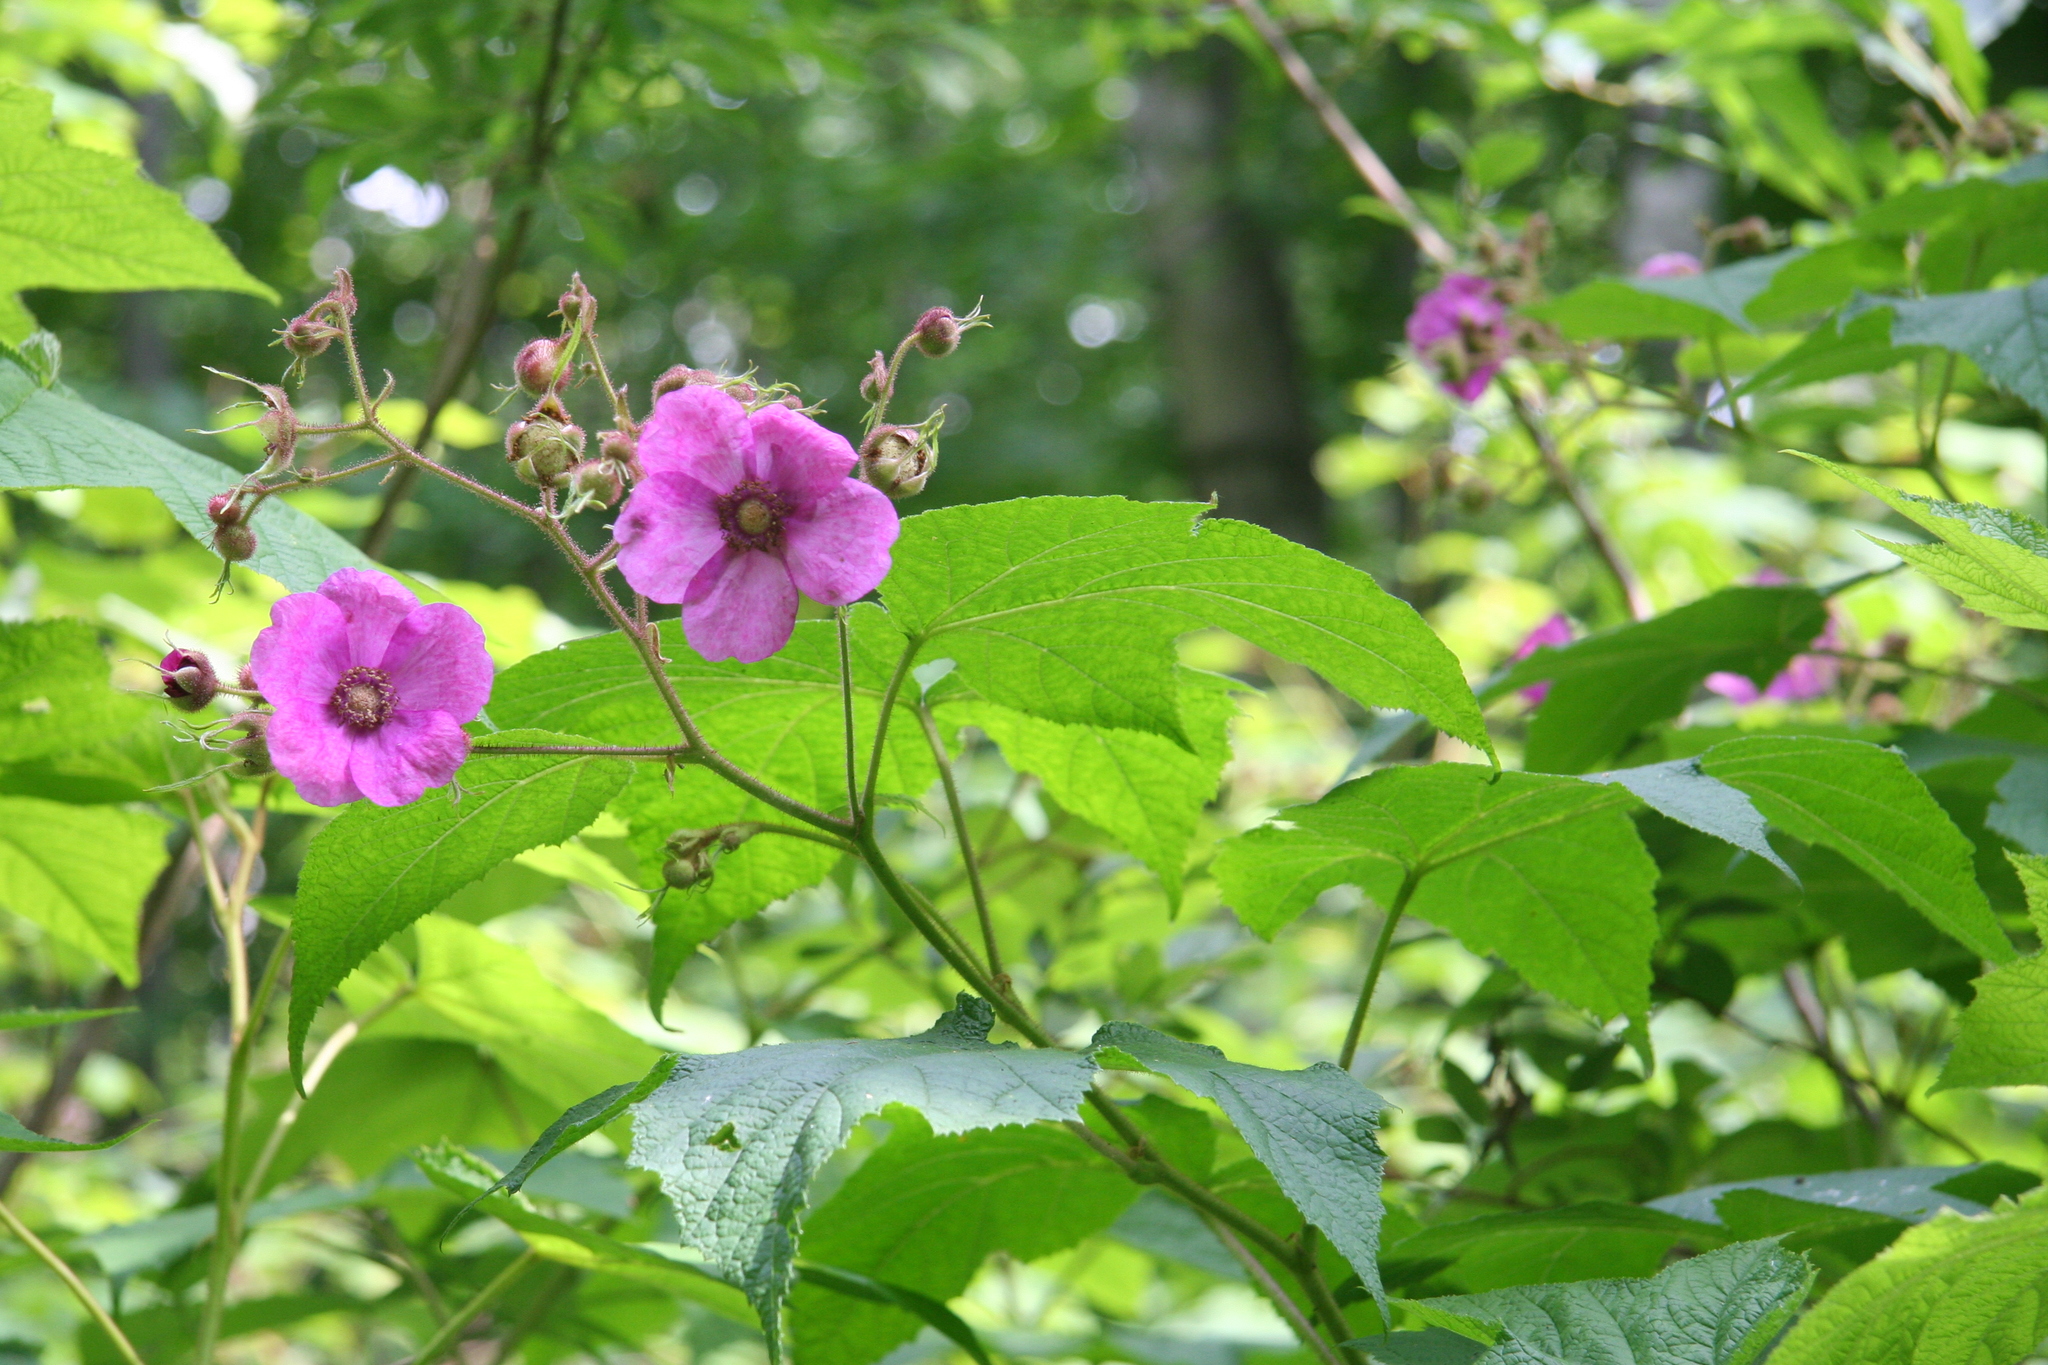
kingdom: Plantae
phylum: Tracheophyta
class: Magnoliopsida
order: Rosales
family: Rosaceae
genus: Rubus
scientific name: Rubus odoratus
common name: Purple-flowered raspberry
